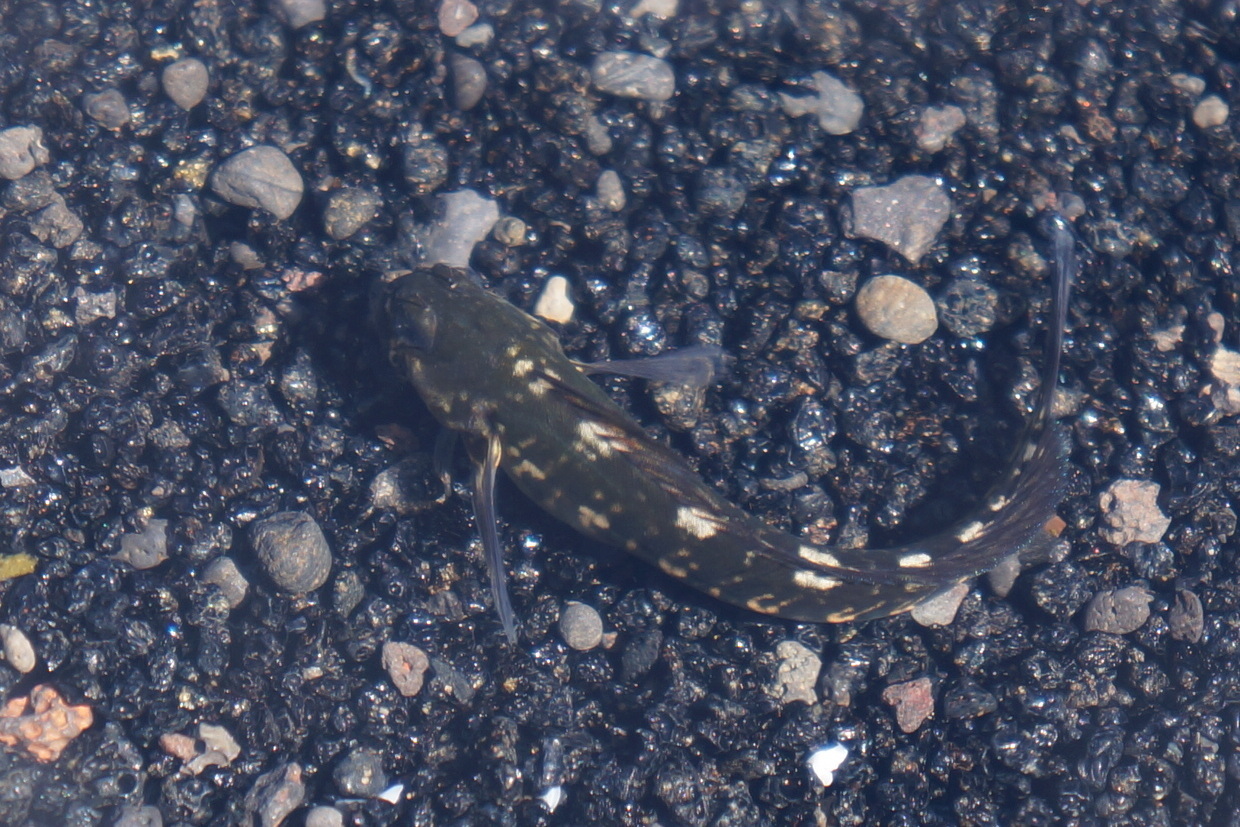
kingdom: Animalia
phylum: Chordata
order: Perciformes
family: Blenniidae
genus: Istiblennius
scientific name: Istiblennius zebra
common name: Zebra blenny
